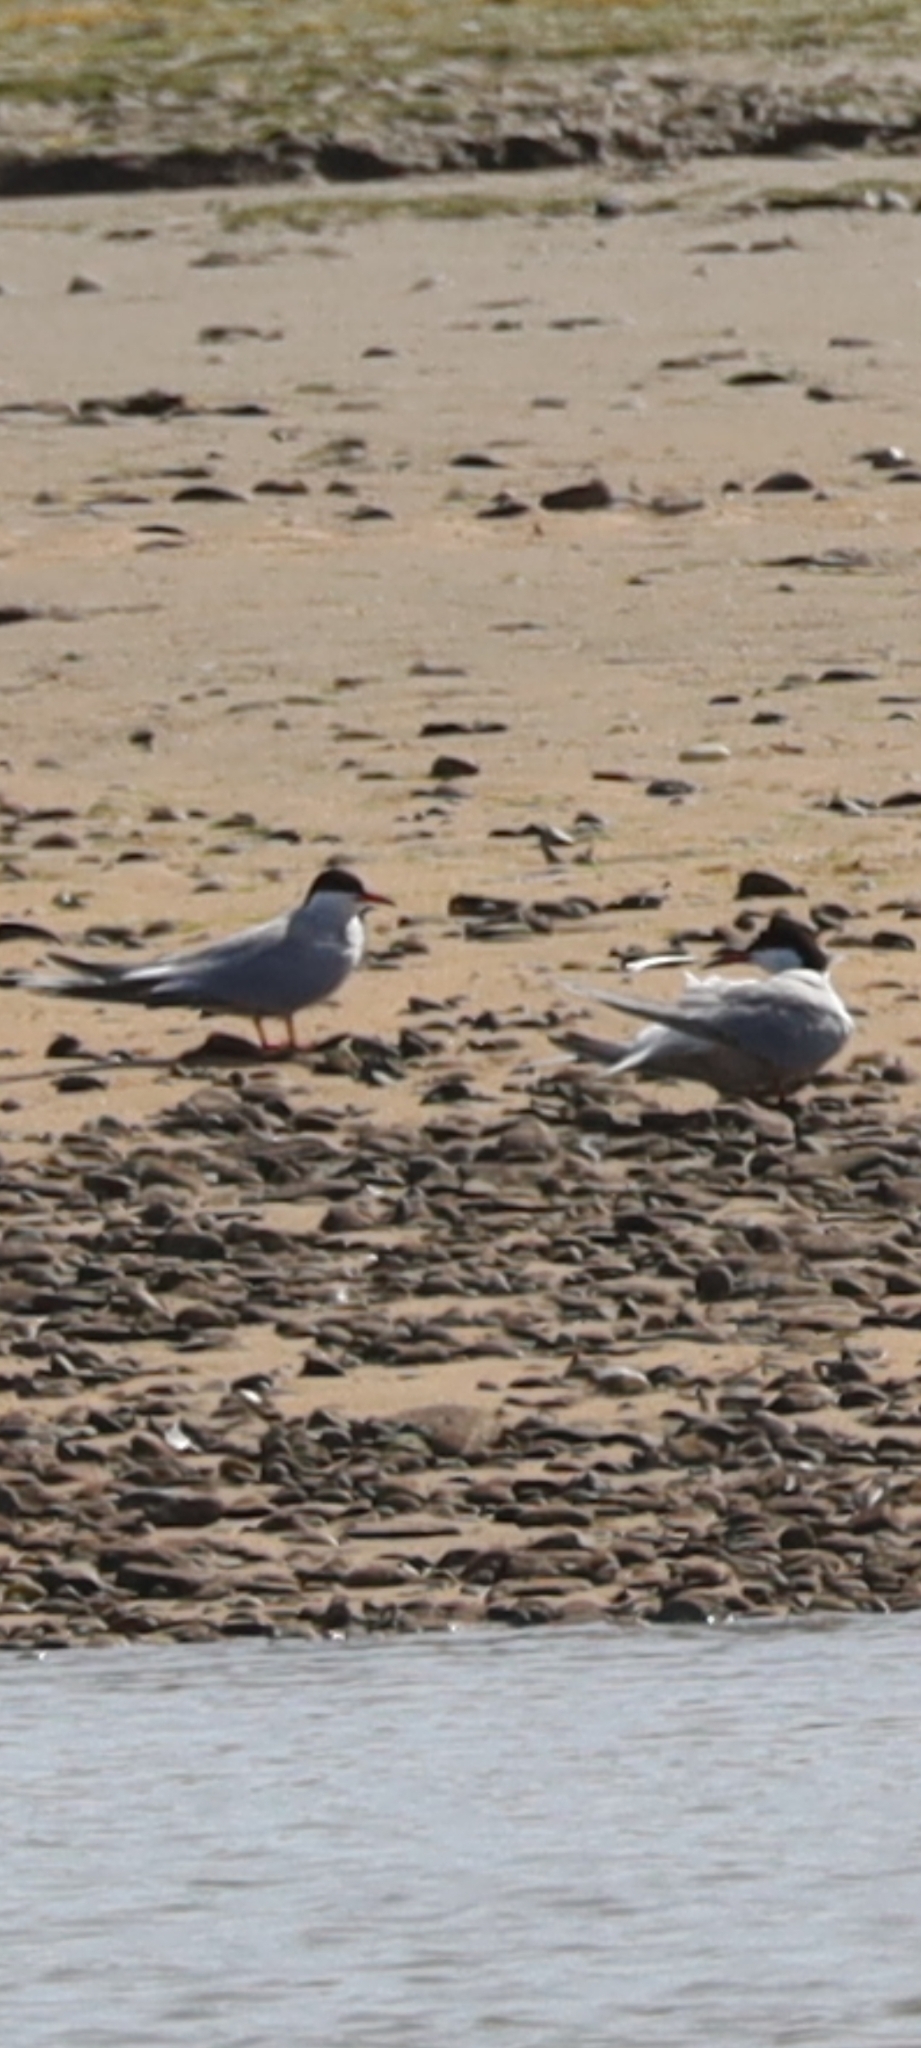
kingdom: Animalia
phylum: Chordata
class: Aves
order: Charadriiformes
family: Laridae
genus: Sterna
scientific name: Sterna paradisaea
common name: Arctic tern
